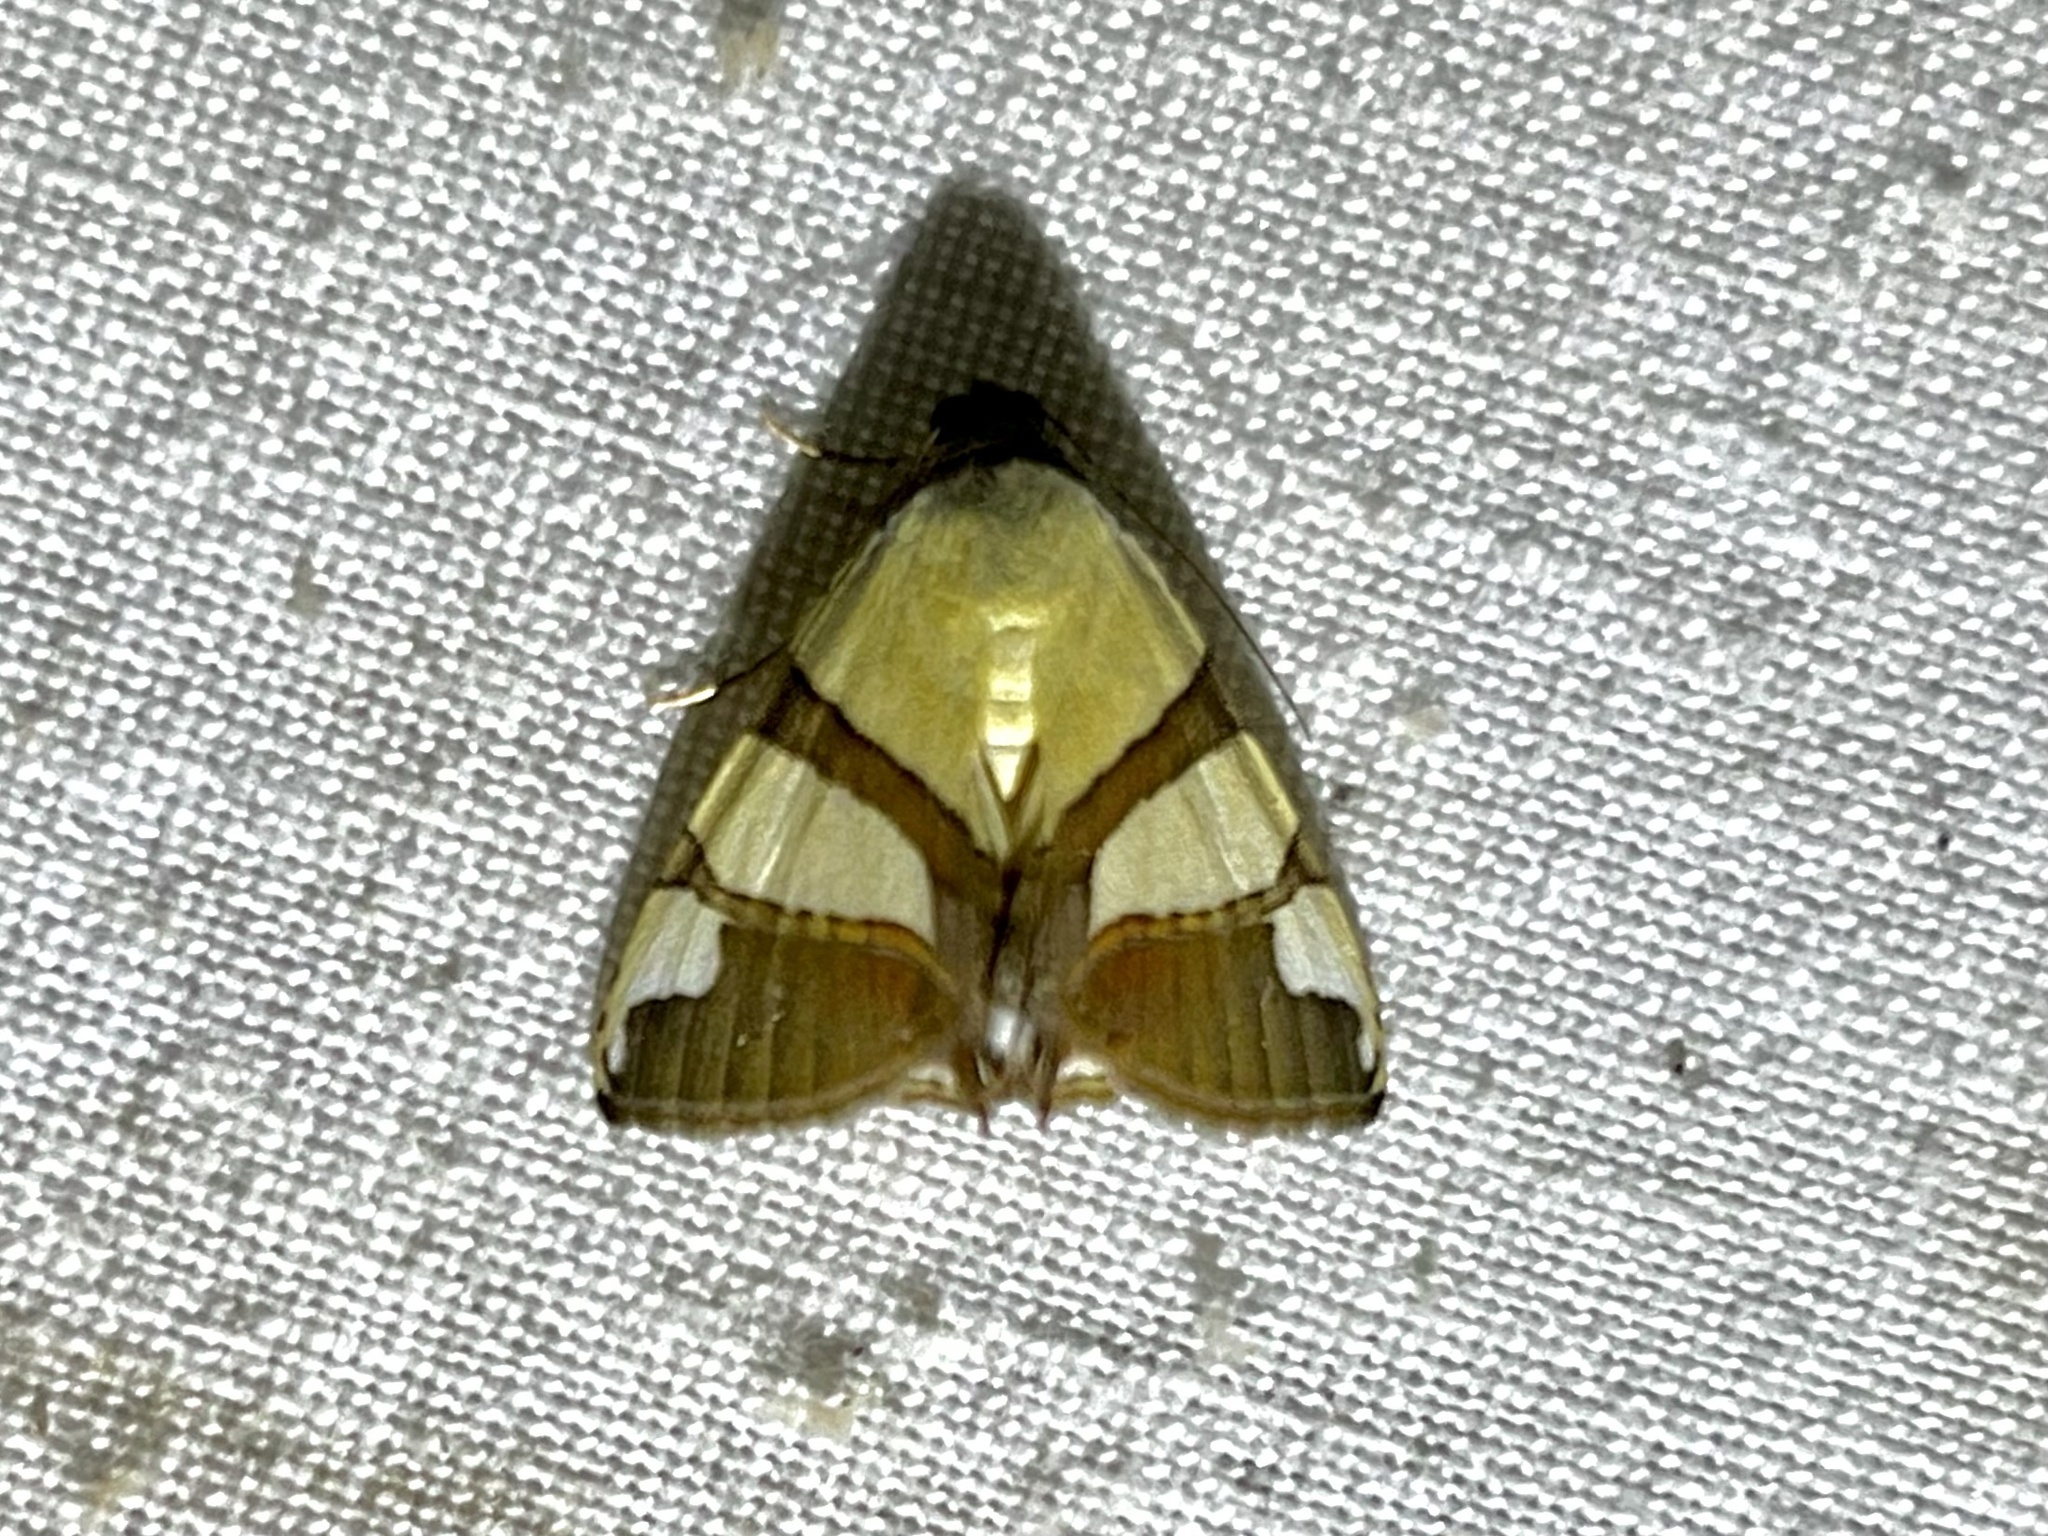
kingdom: Animalia
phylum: Arthropoda
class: Insecta
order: Lepidoptera
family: Erebidae
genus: Eulepidotis
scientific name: Eulepidotis julianata
